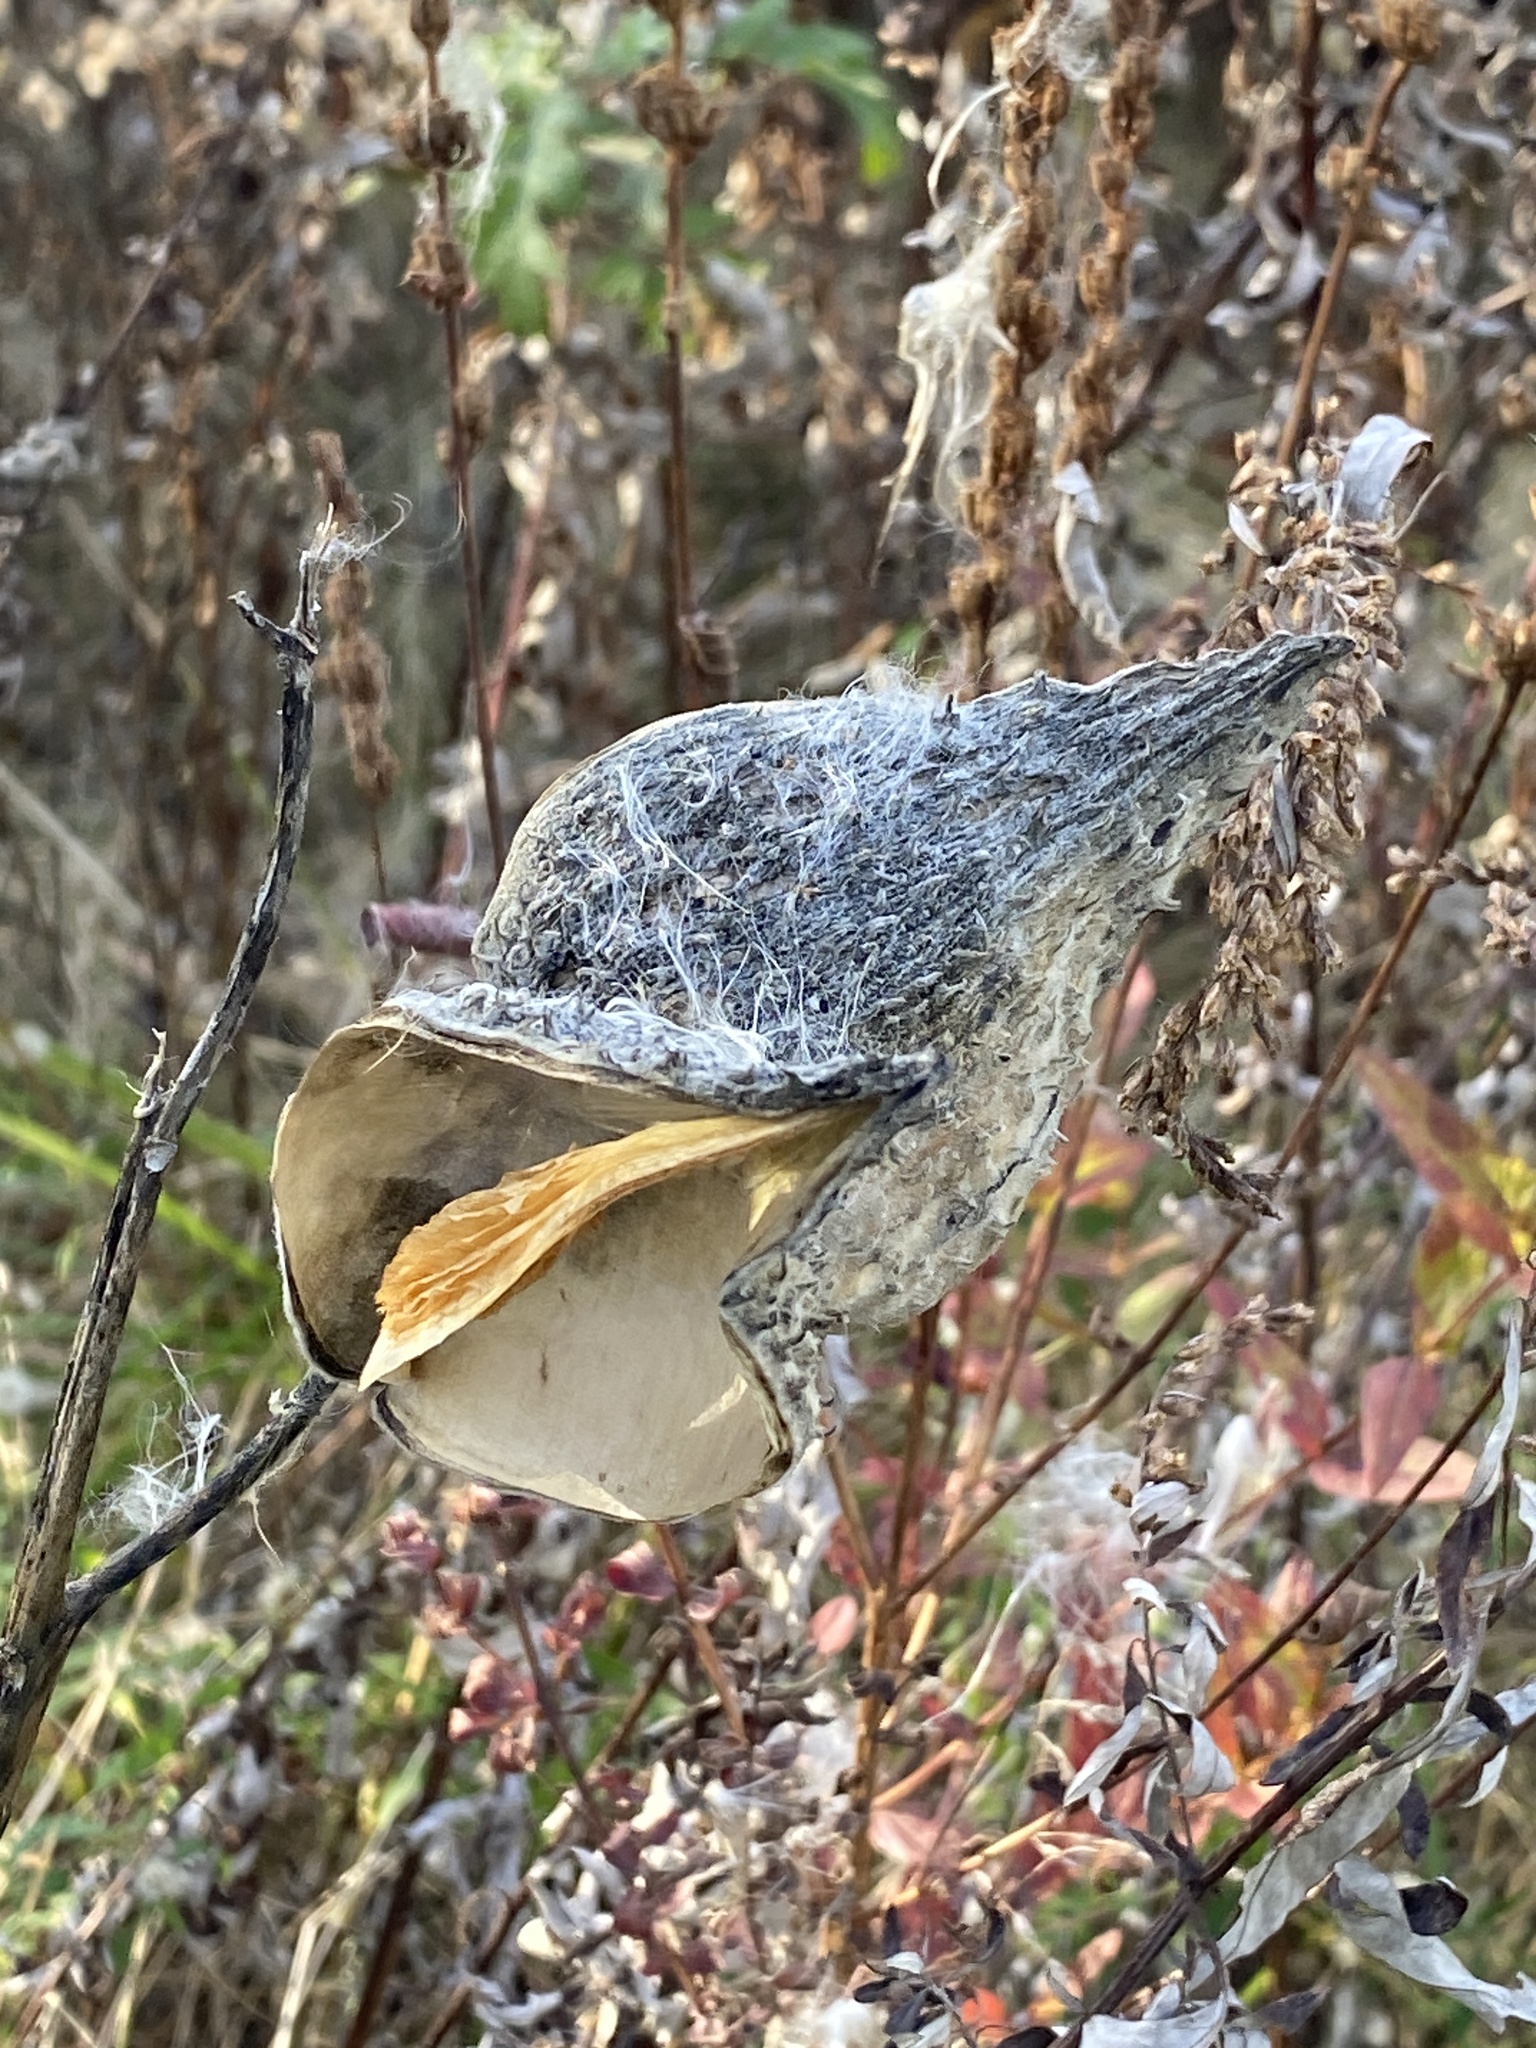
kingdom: Plantae
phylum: Tracheophyta
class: Magnoliopsida
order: Gentianales
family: Apocynaceae
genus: Asclepias
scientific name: Asclepias syriaca
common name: Common milkweed
